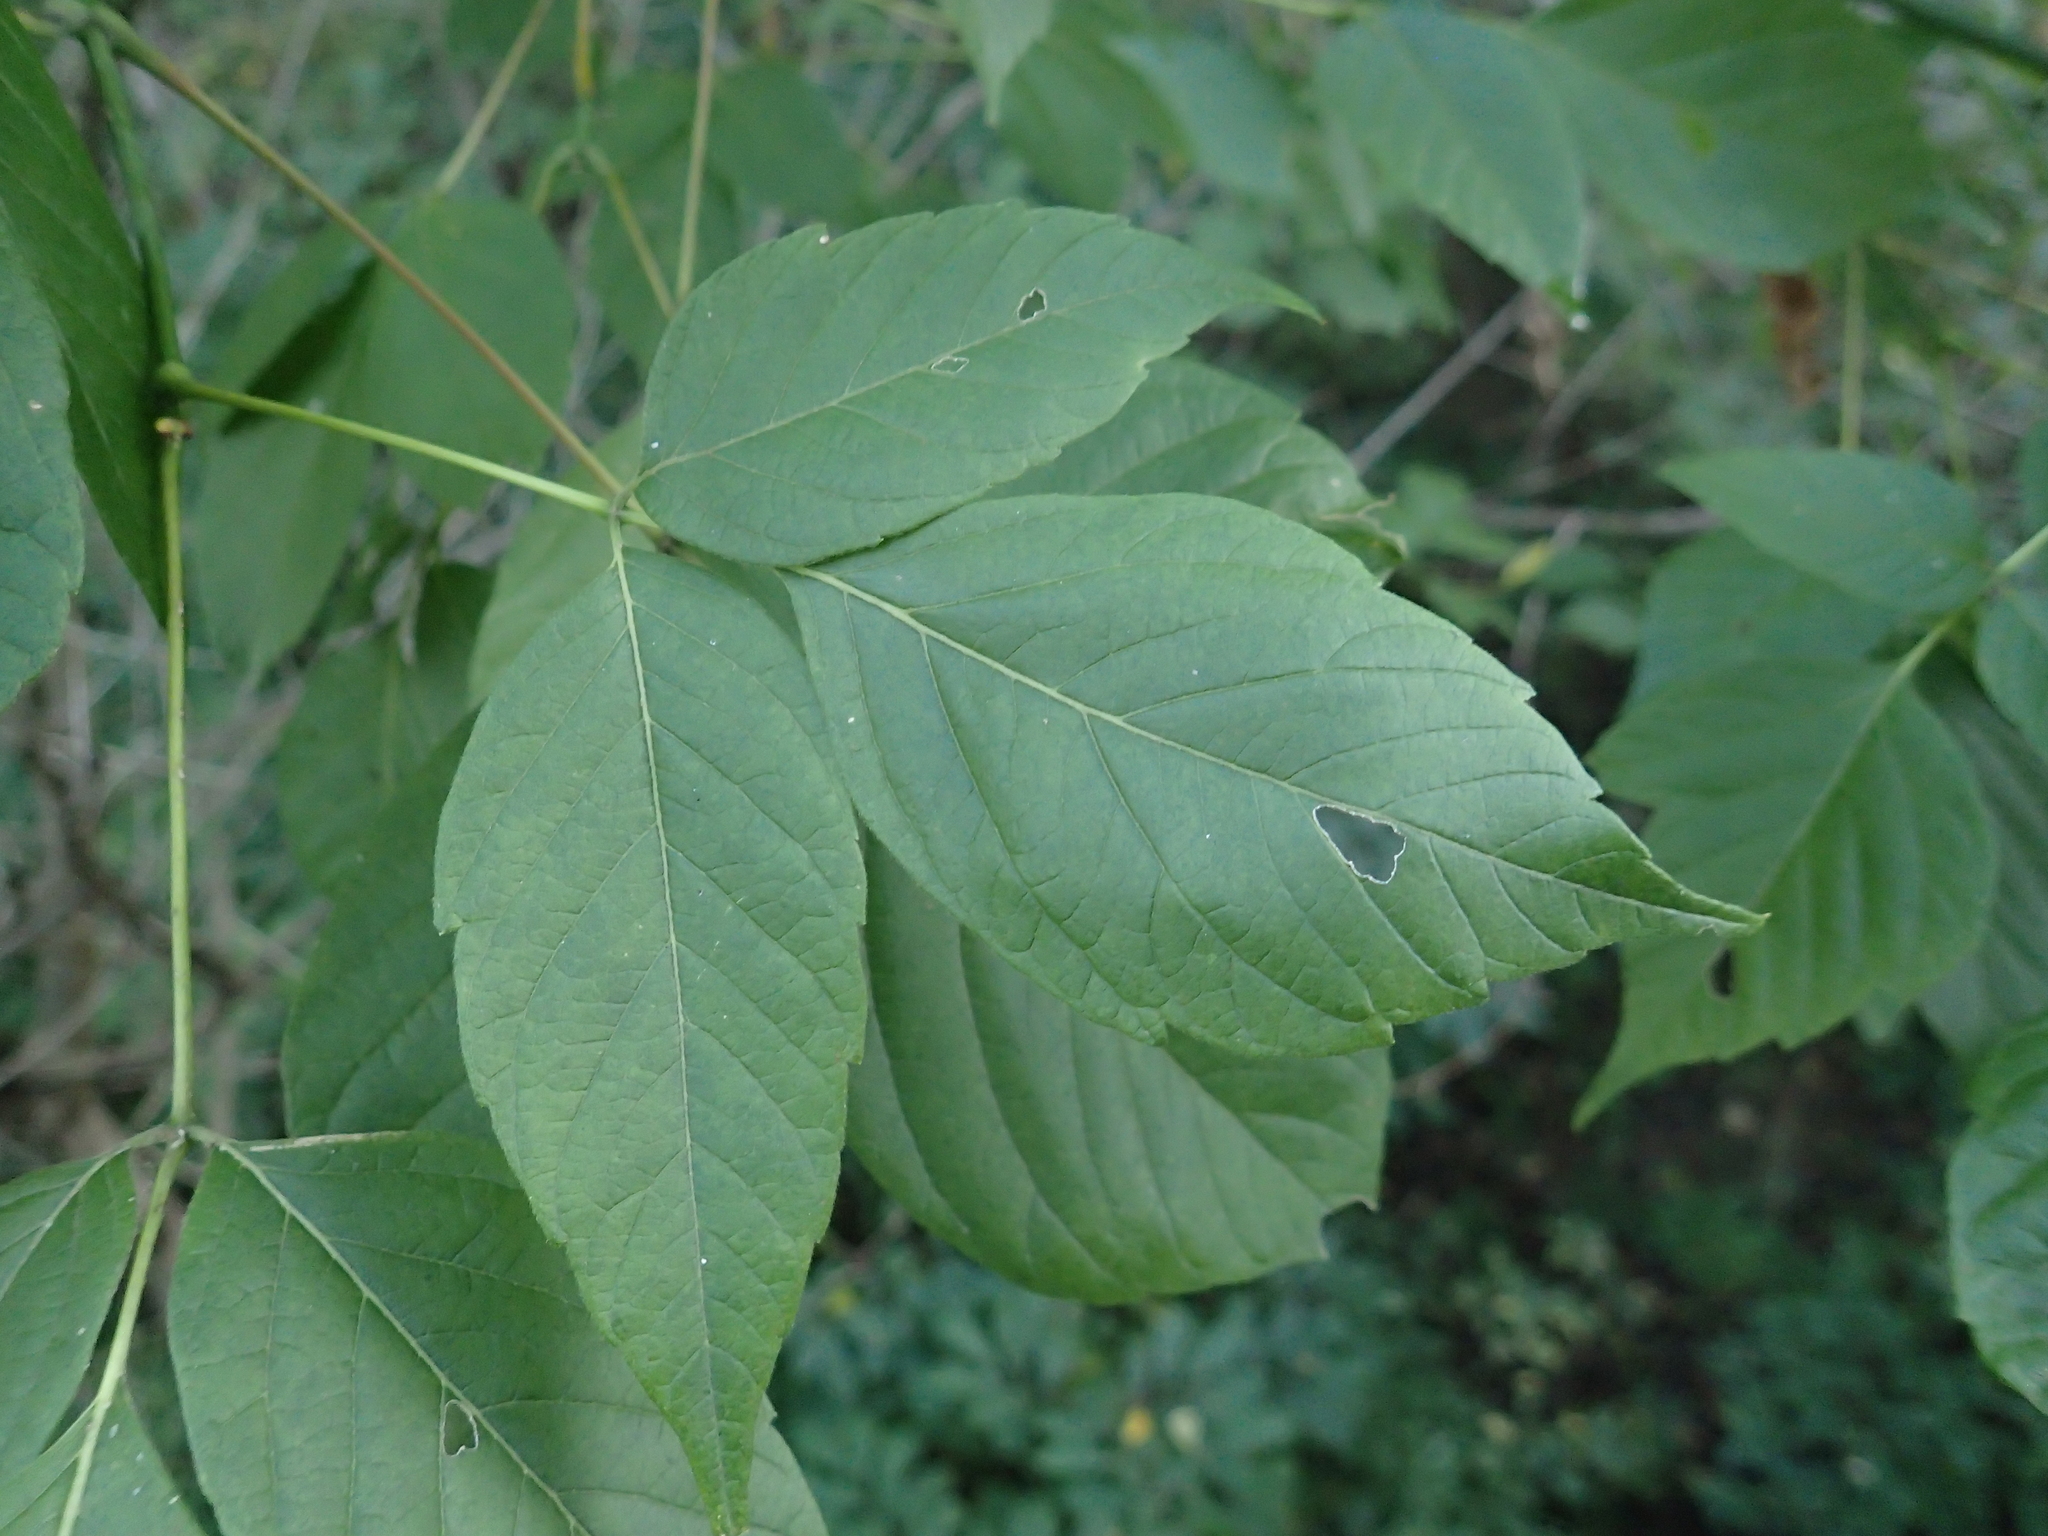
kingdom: Plantae
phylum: Tracheophyta
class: Magnoliopsida
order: Sapindales
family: Sapindaceae
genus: Acer
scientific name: Acer negundo
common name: Ashleaf maple
